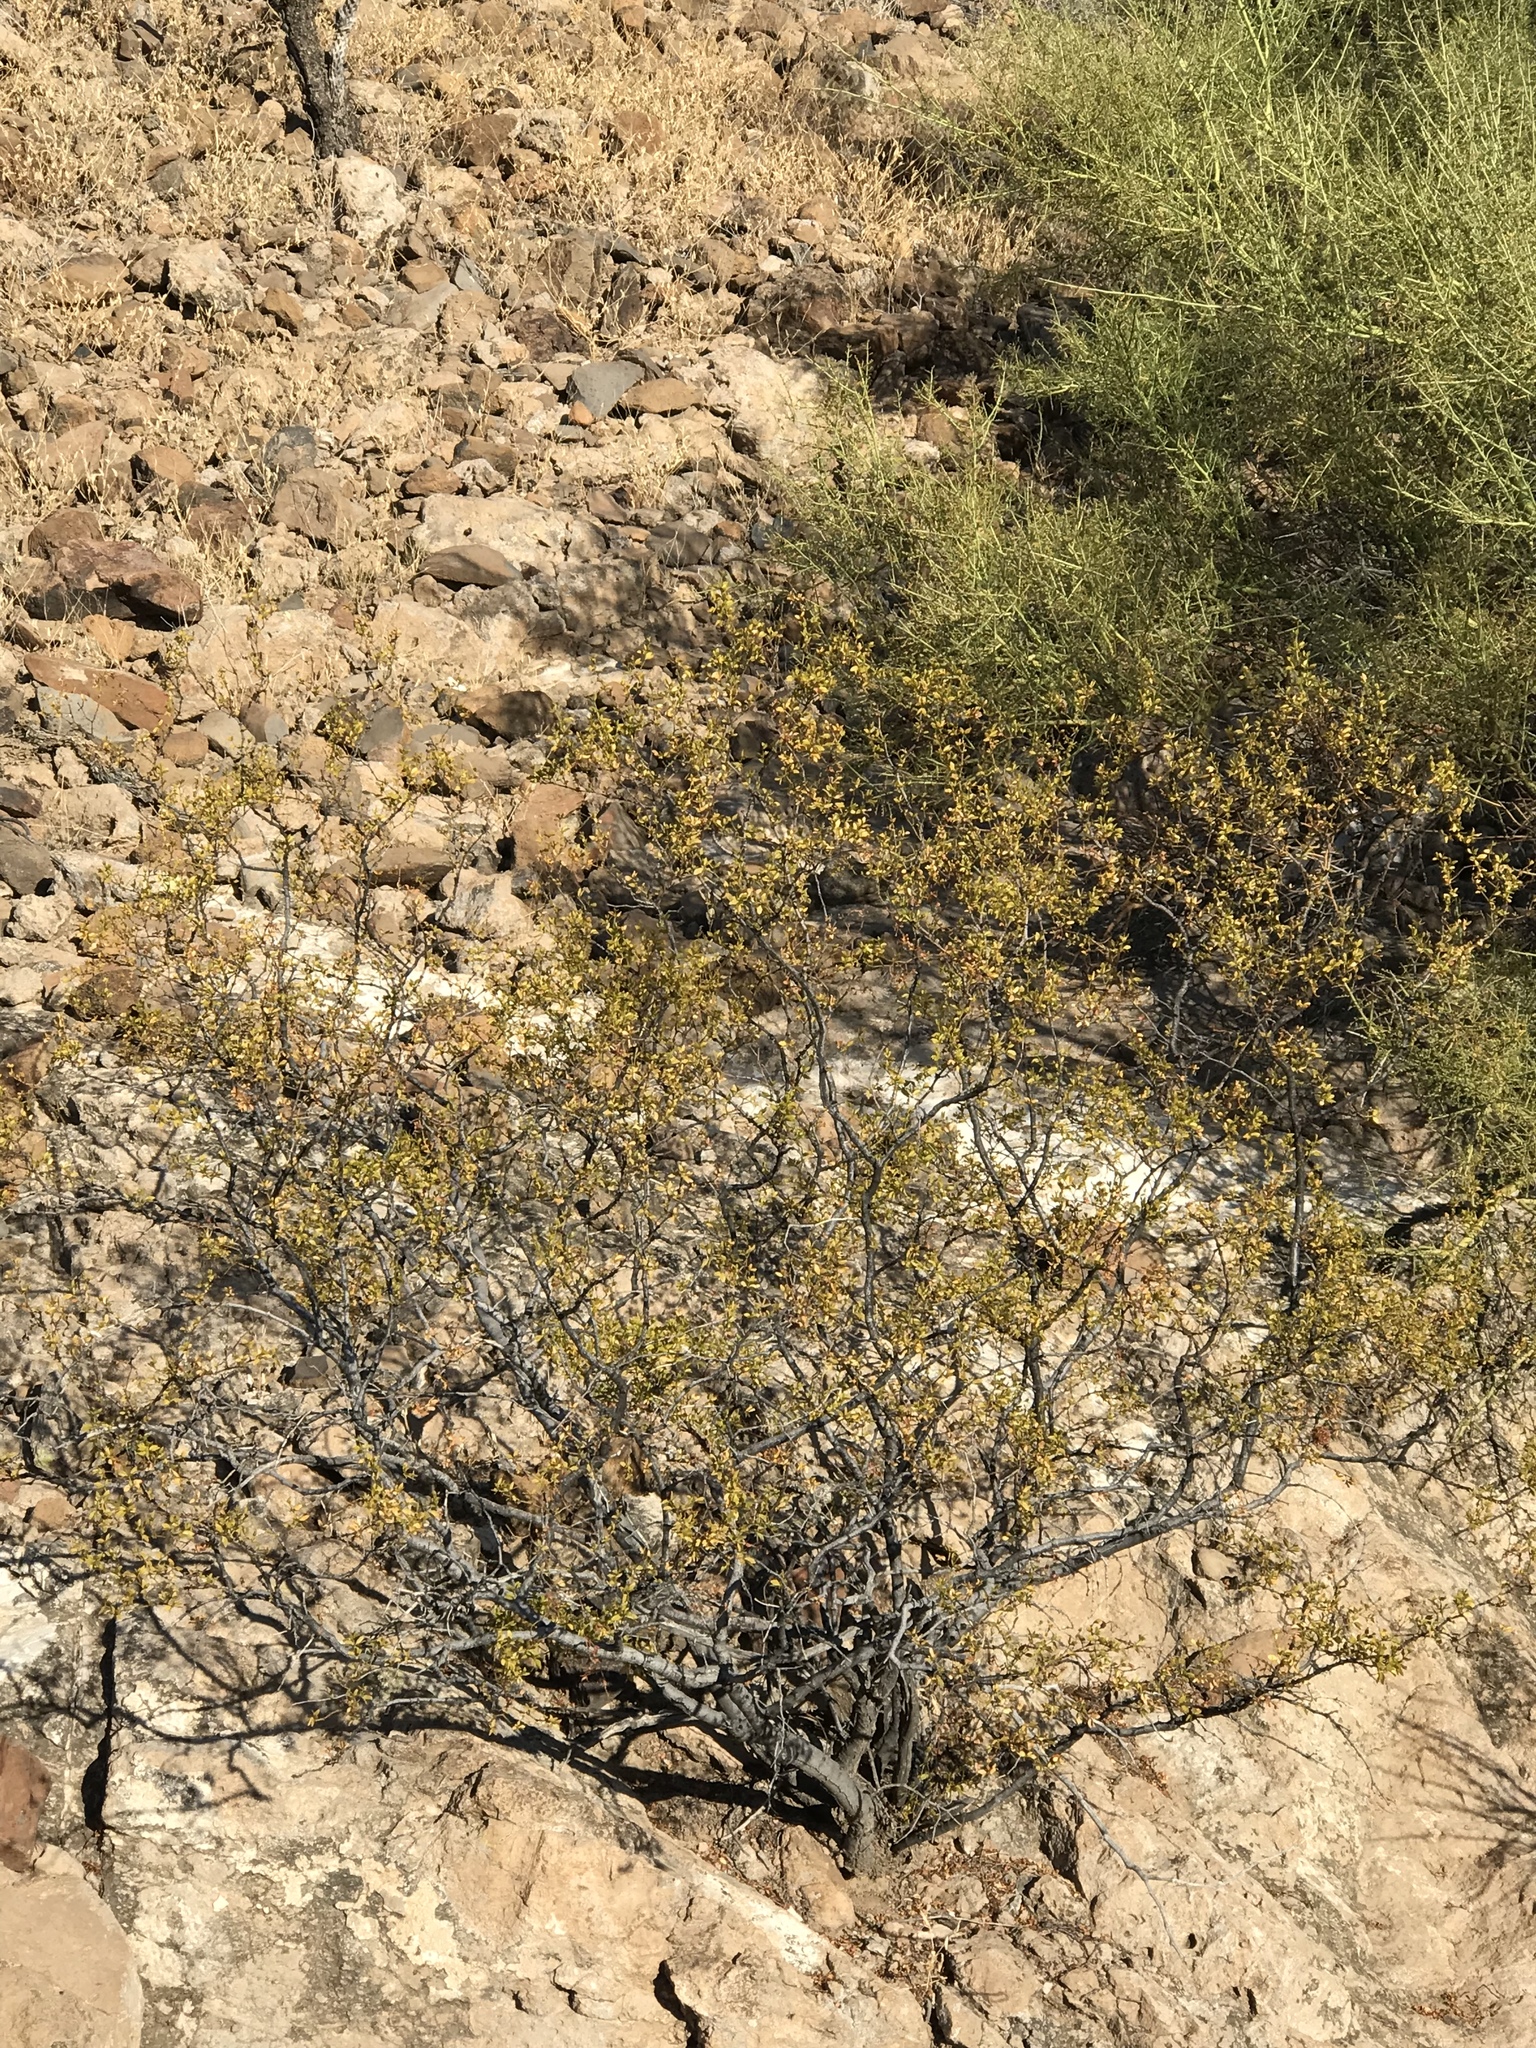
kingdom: Plantae
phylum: Tracheophyta
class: Magnoliopsida
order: Zygophyllales
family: Zygophyllaceae
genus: Larrea
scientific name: Larrea tridentata
